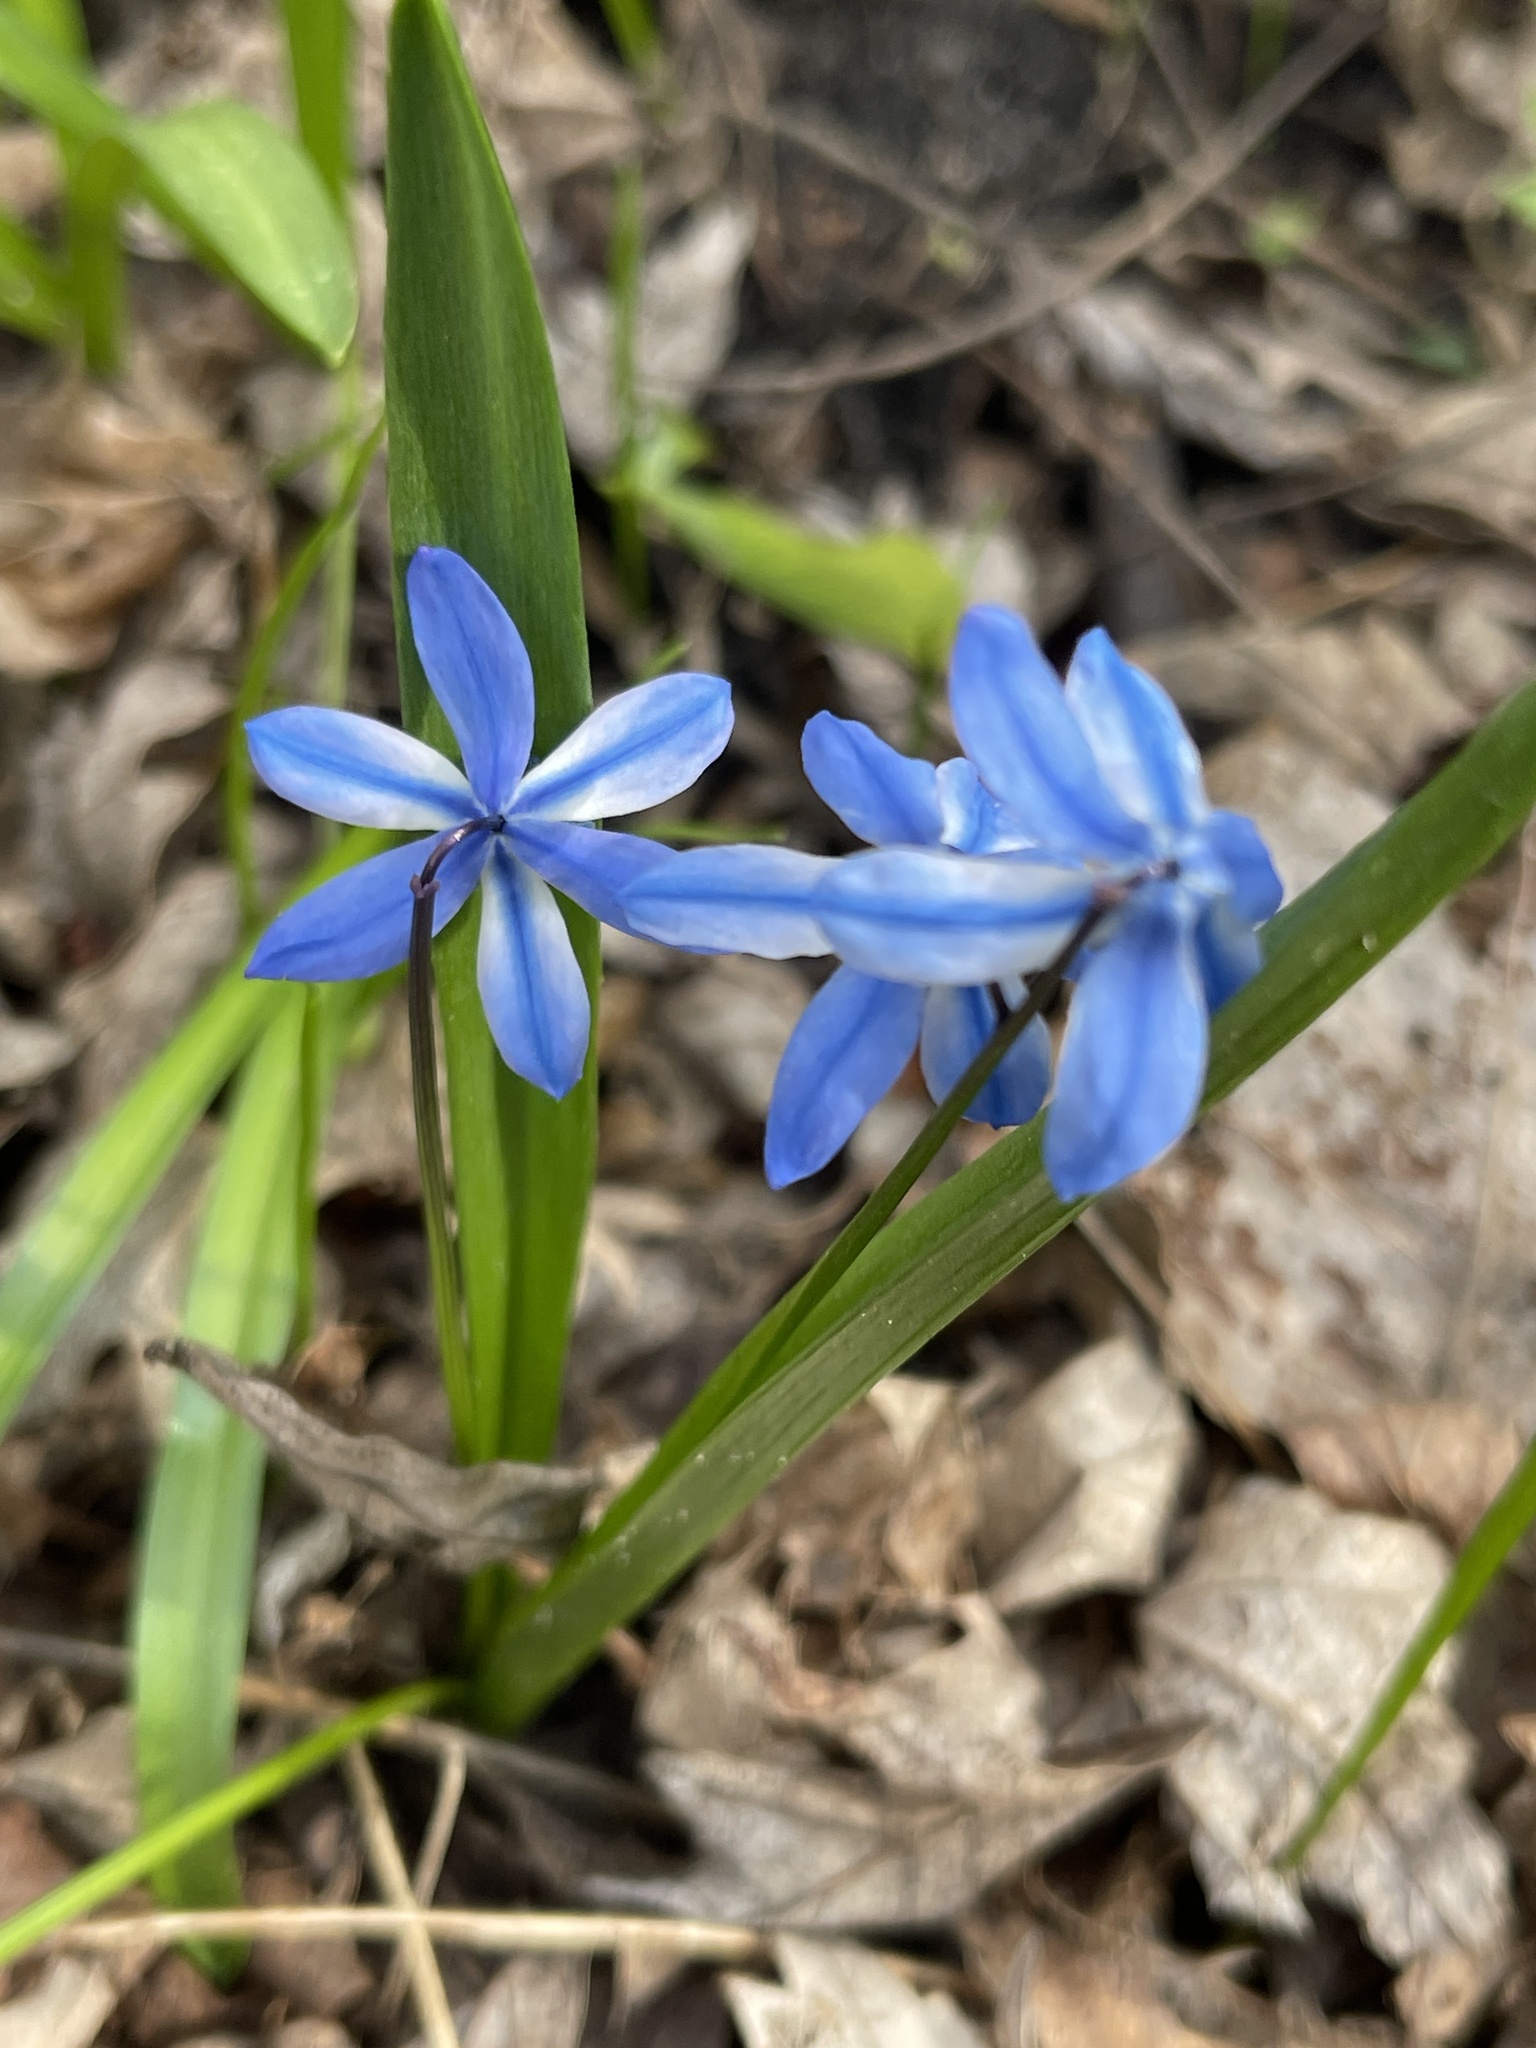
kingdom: Plantae
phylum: Tracheophyta
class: Liliopsida
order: Asparagales
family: Asparagaceae
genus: Scilla
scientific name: Scilla siberica
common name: Siberian squill
